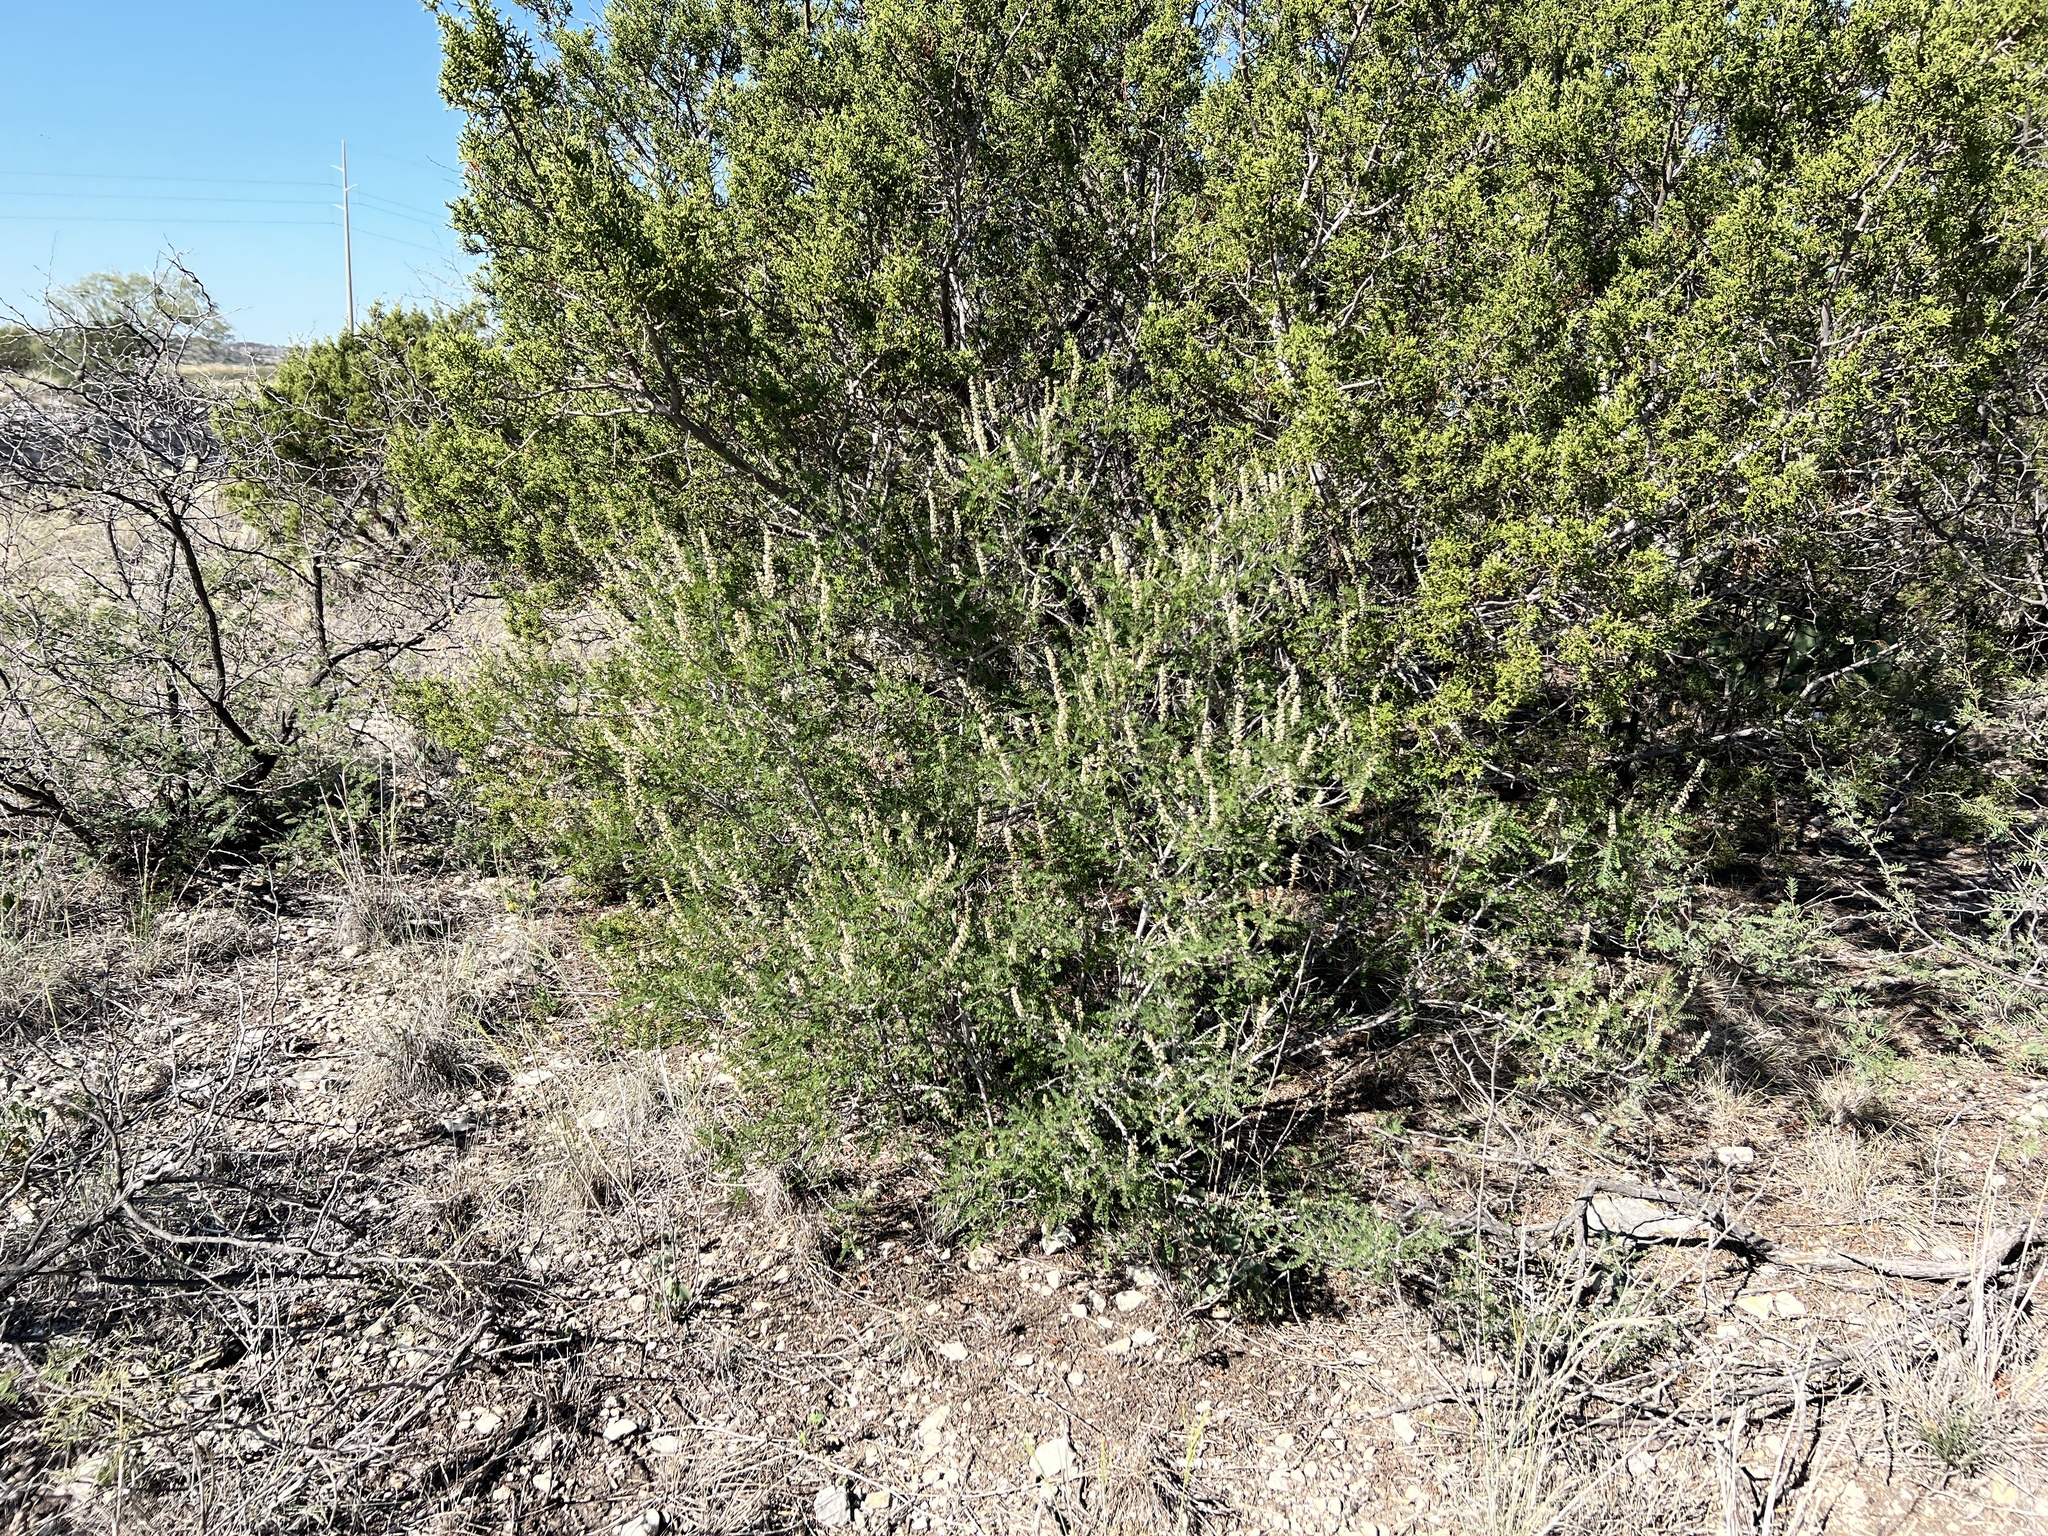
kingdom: Plantae
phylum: Tracheophyta
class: Magnoliopsida
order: Fabales
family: Fabaceae
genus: Eysenhardtia
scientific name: Eysenhardtia texana
